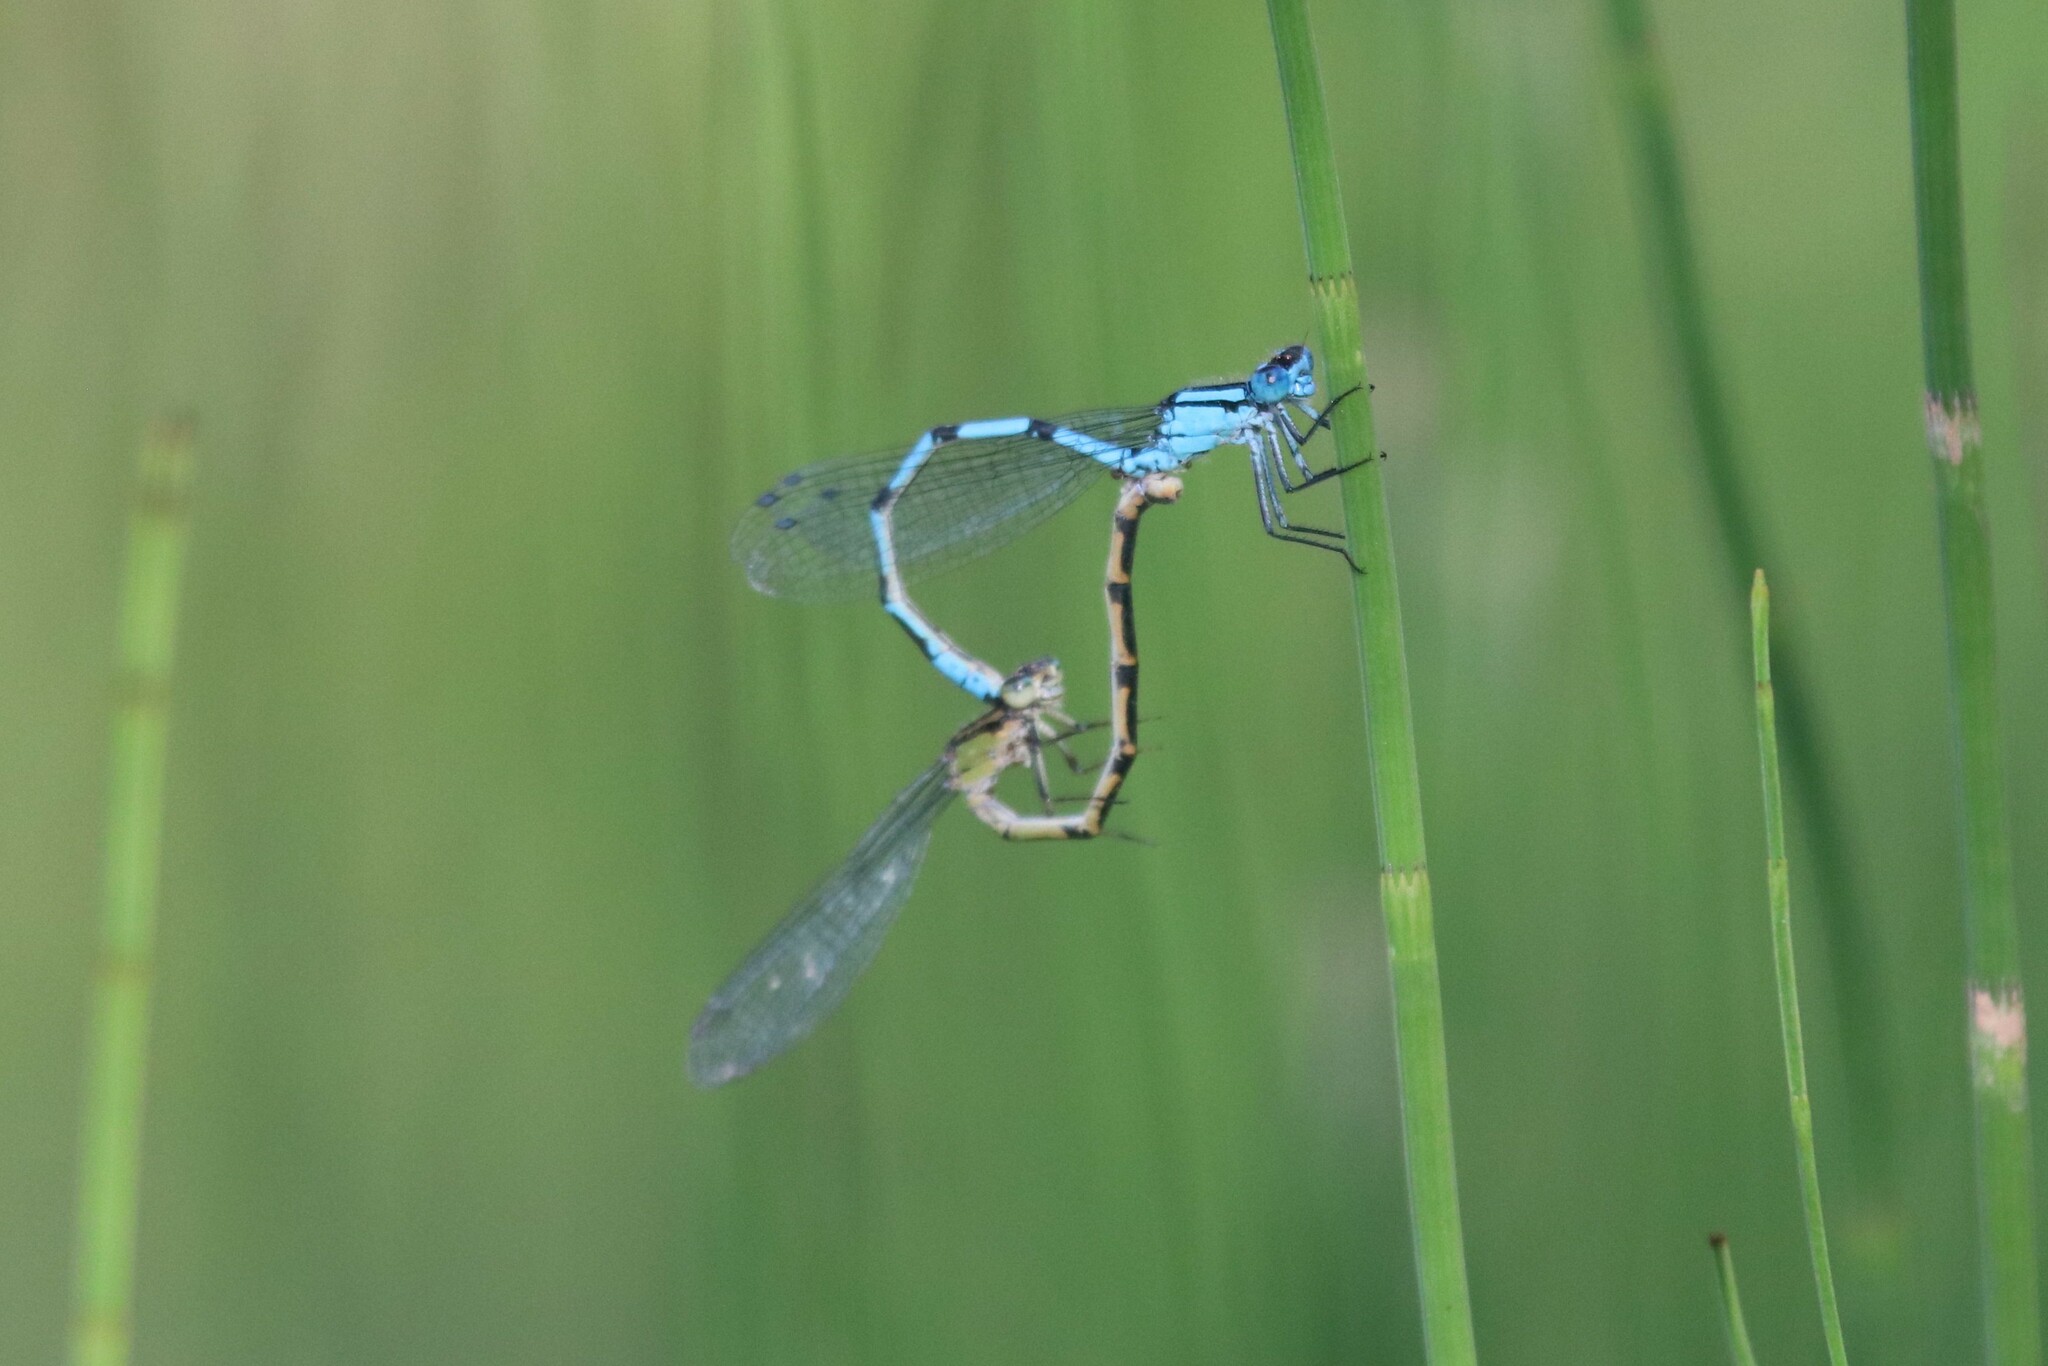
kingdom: Animalia
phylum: Arthropoda
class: Insecta
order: Odonata
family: Coenagrionidae
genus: Enallagma
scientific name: Enallagma cyathigerum
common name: Common blue damselfly
